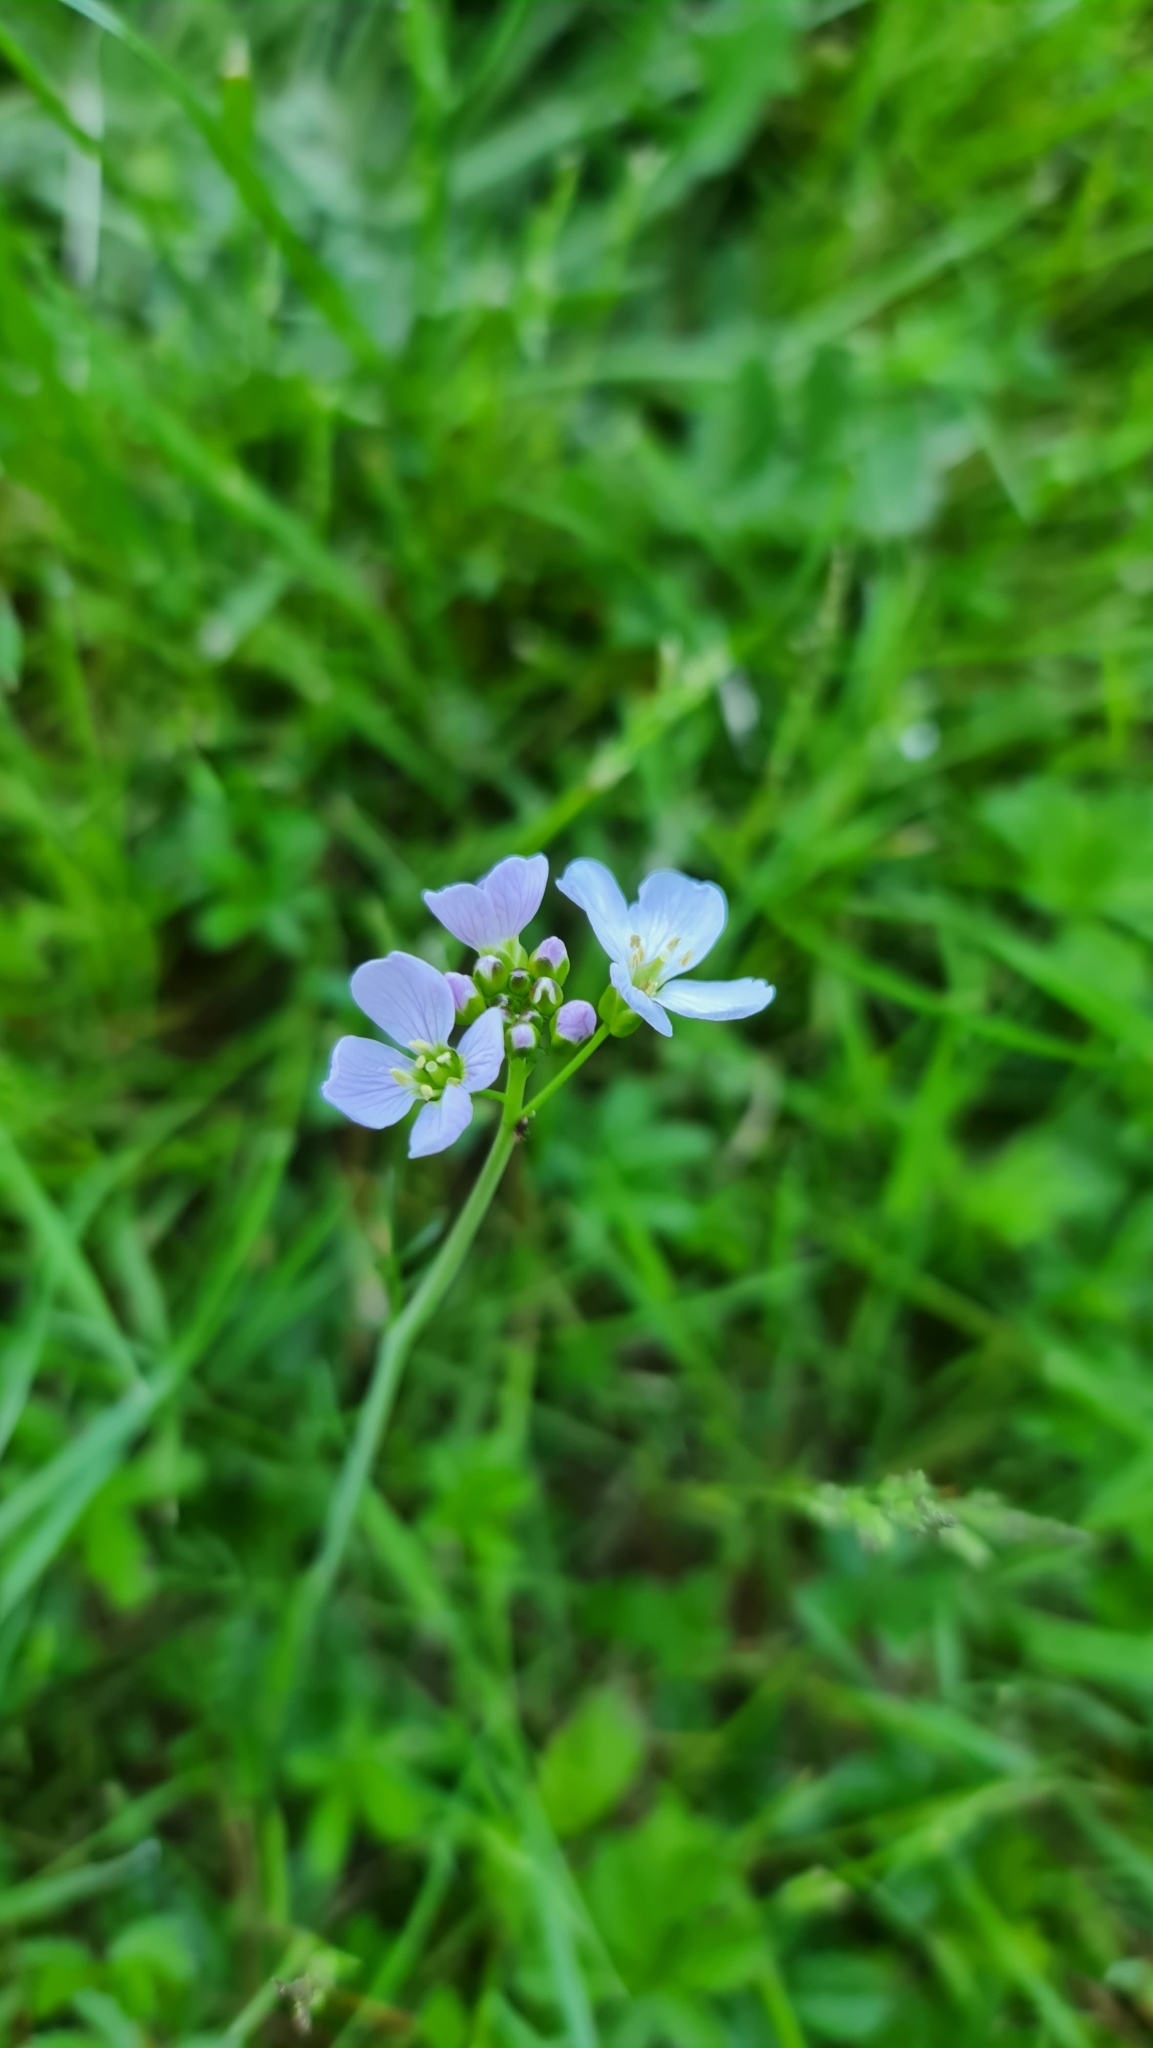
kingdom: Plantae
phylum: Tracheophyta
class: Magnoliopsida
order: Brassicales
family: Brassicaceae
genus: Cardamine
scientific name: Cardamine pratensis
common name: Cuckoo flower
